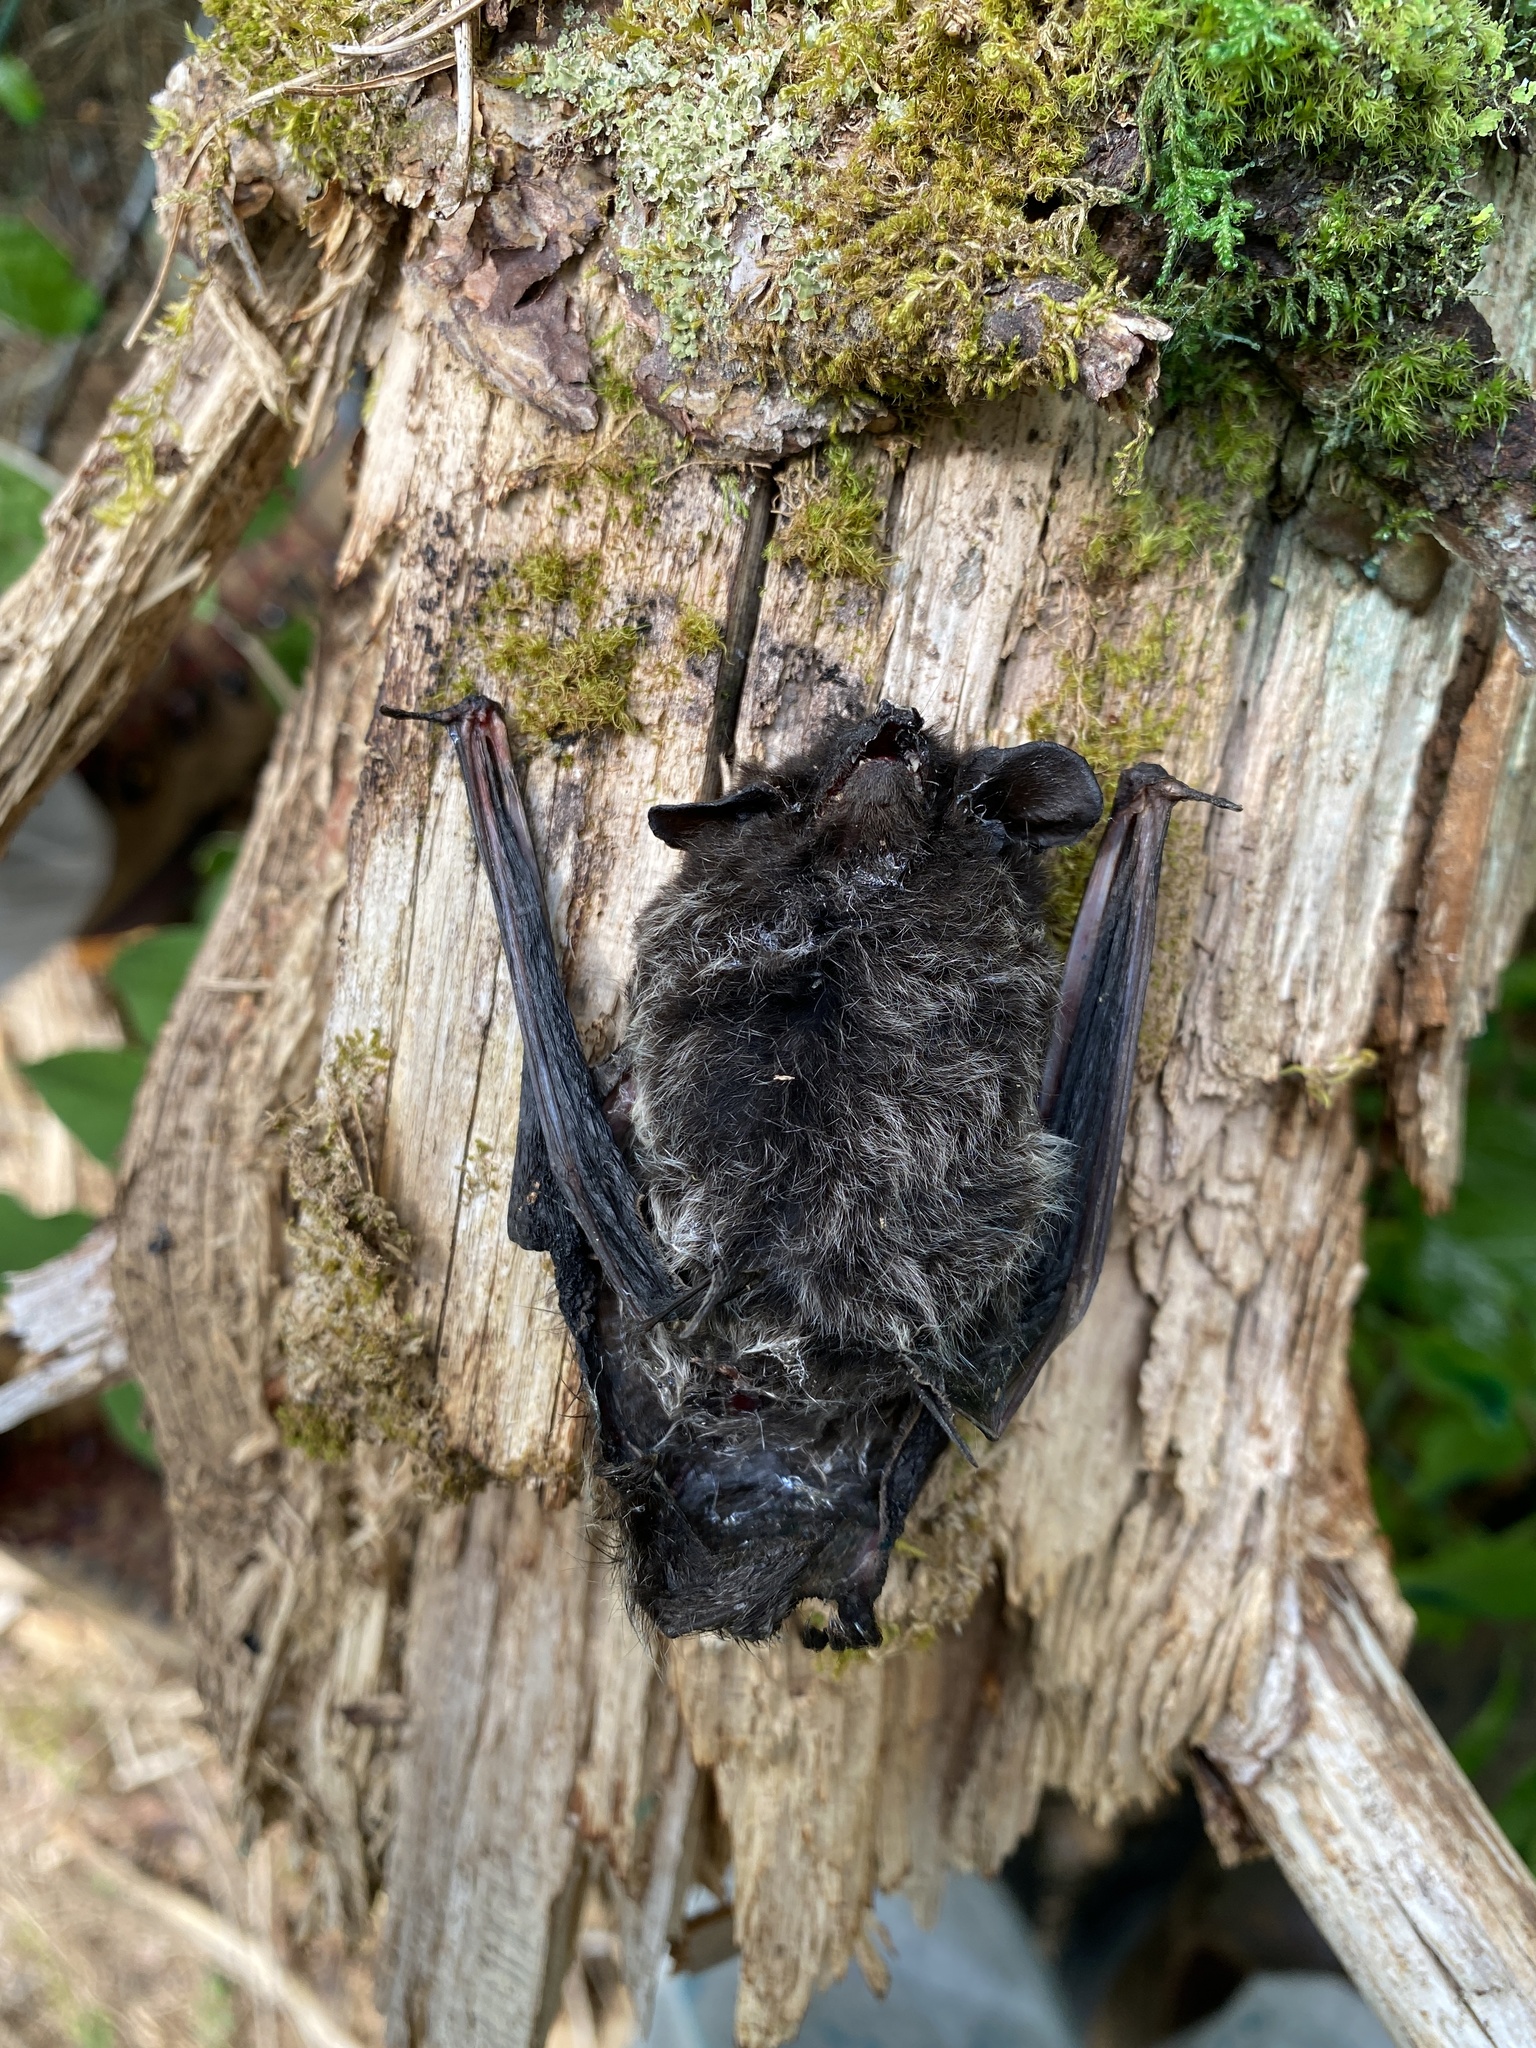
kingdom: Animalia
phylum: Chordata
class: Mammalia
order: Chiroptera
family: Vespertilionidae
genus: Lasionycteris
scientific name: Lasionycteris noctivagans
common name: Silver-haired bat
